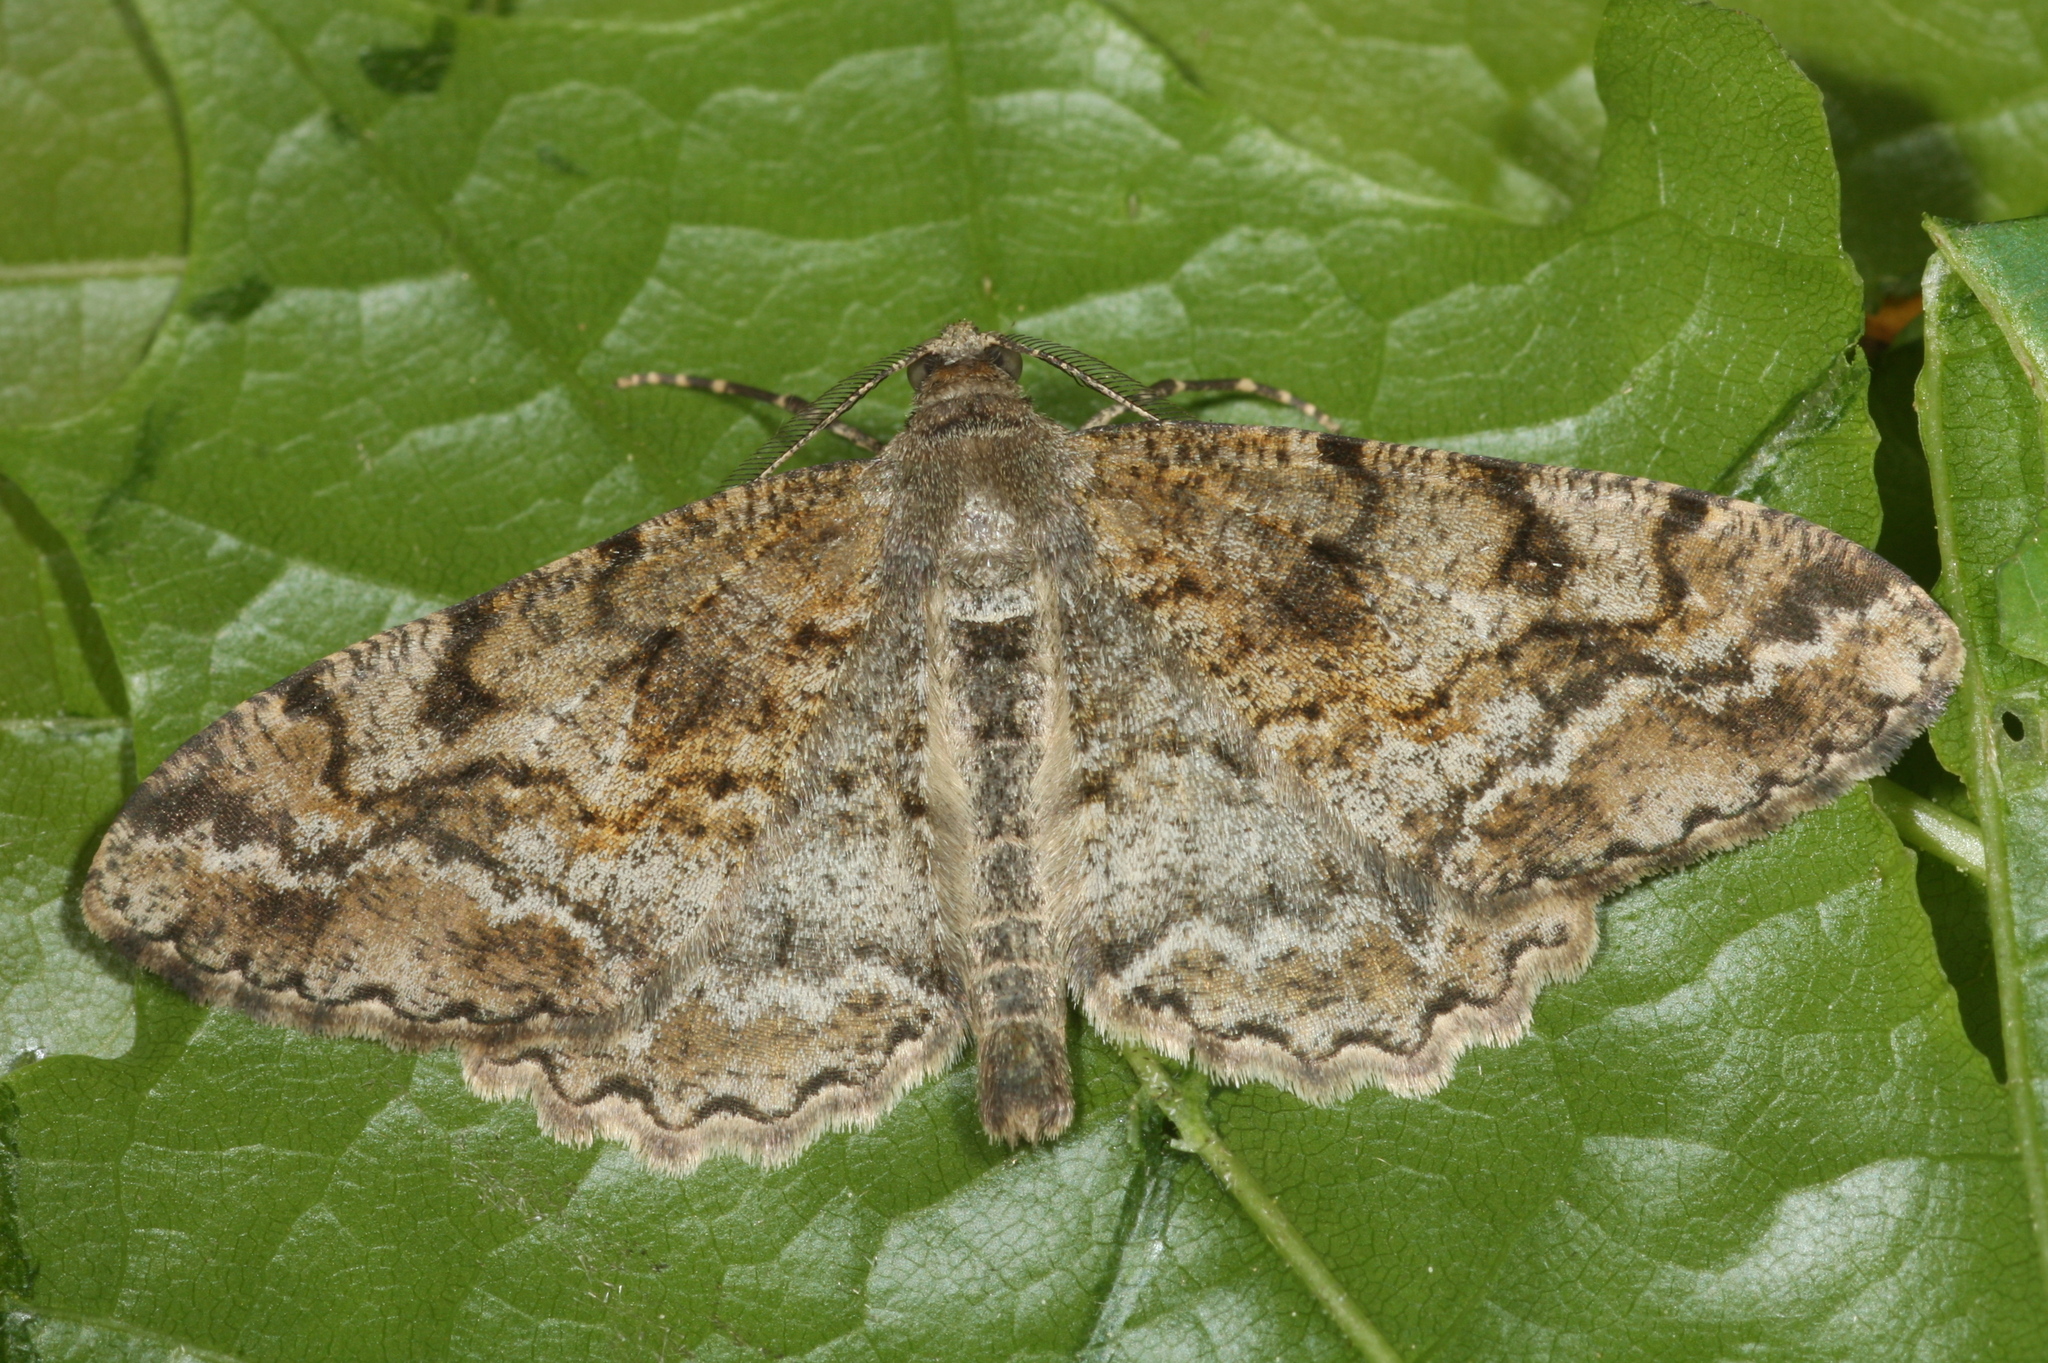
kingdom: Animalia
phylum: Arthropoda
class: Insecta
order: Lepidoptera
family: Geometridae
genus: Alcis
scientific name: Alcis repandata
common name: Mottled beauty
